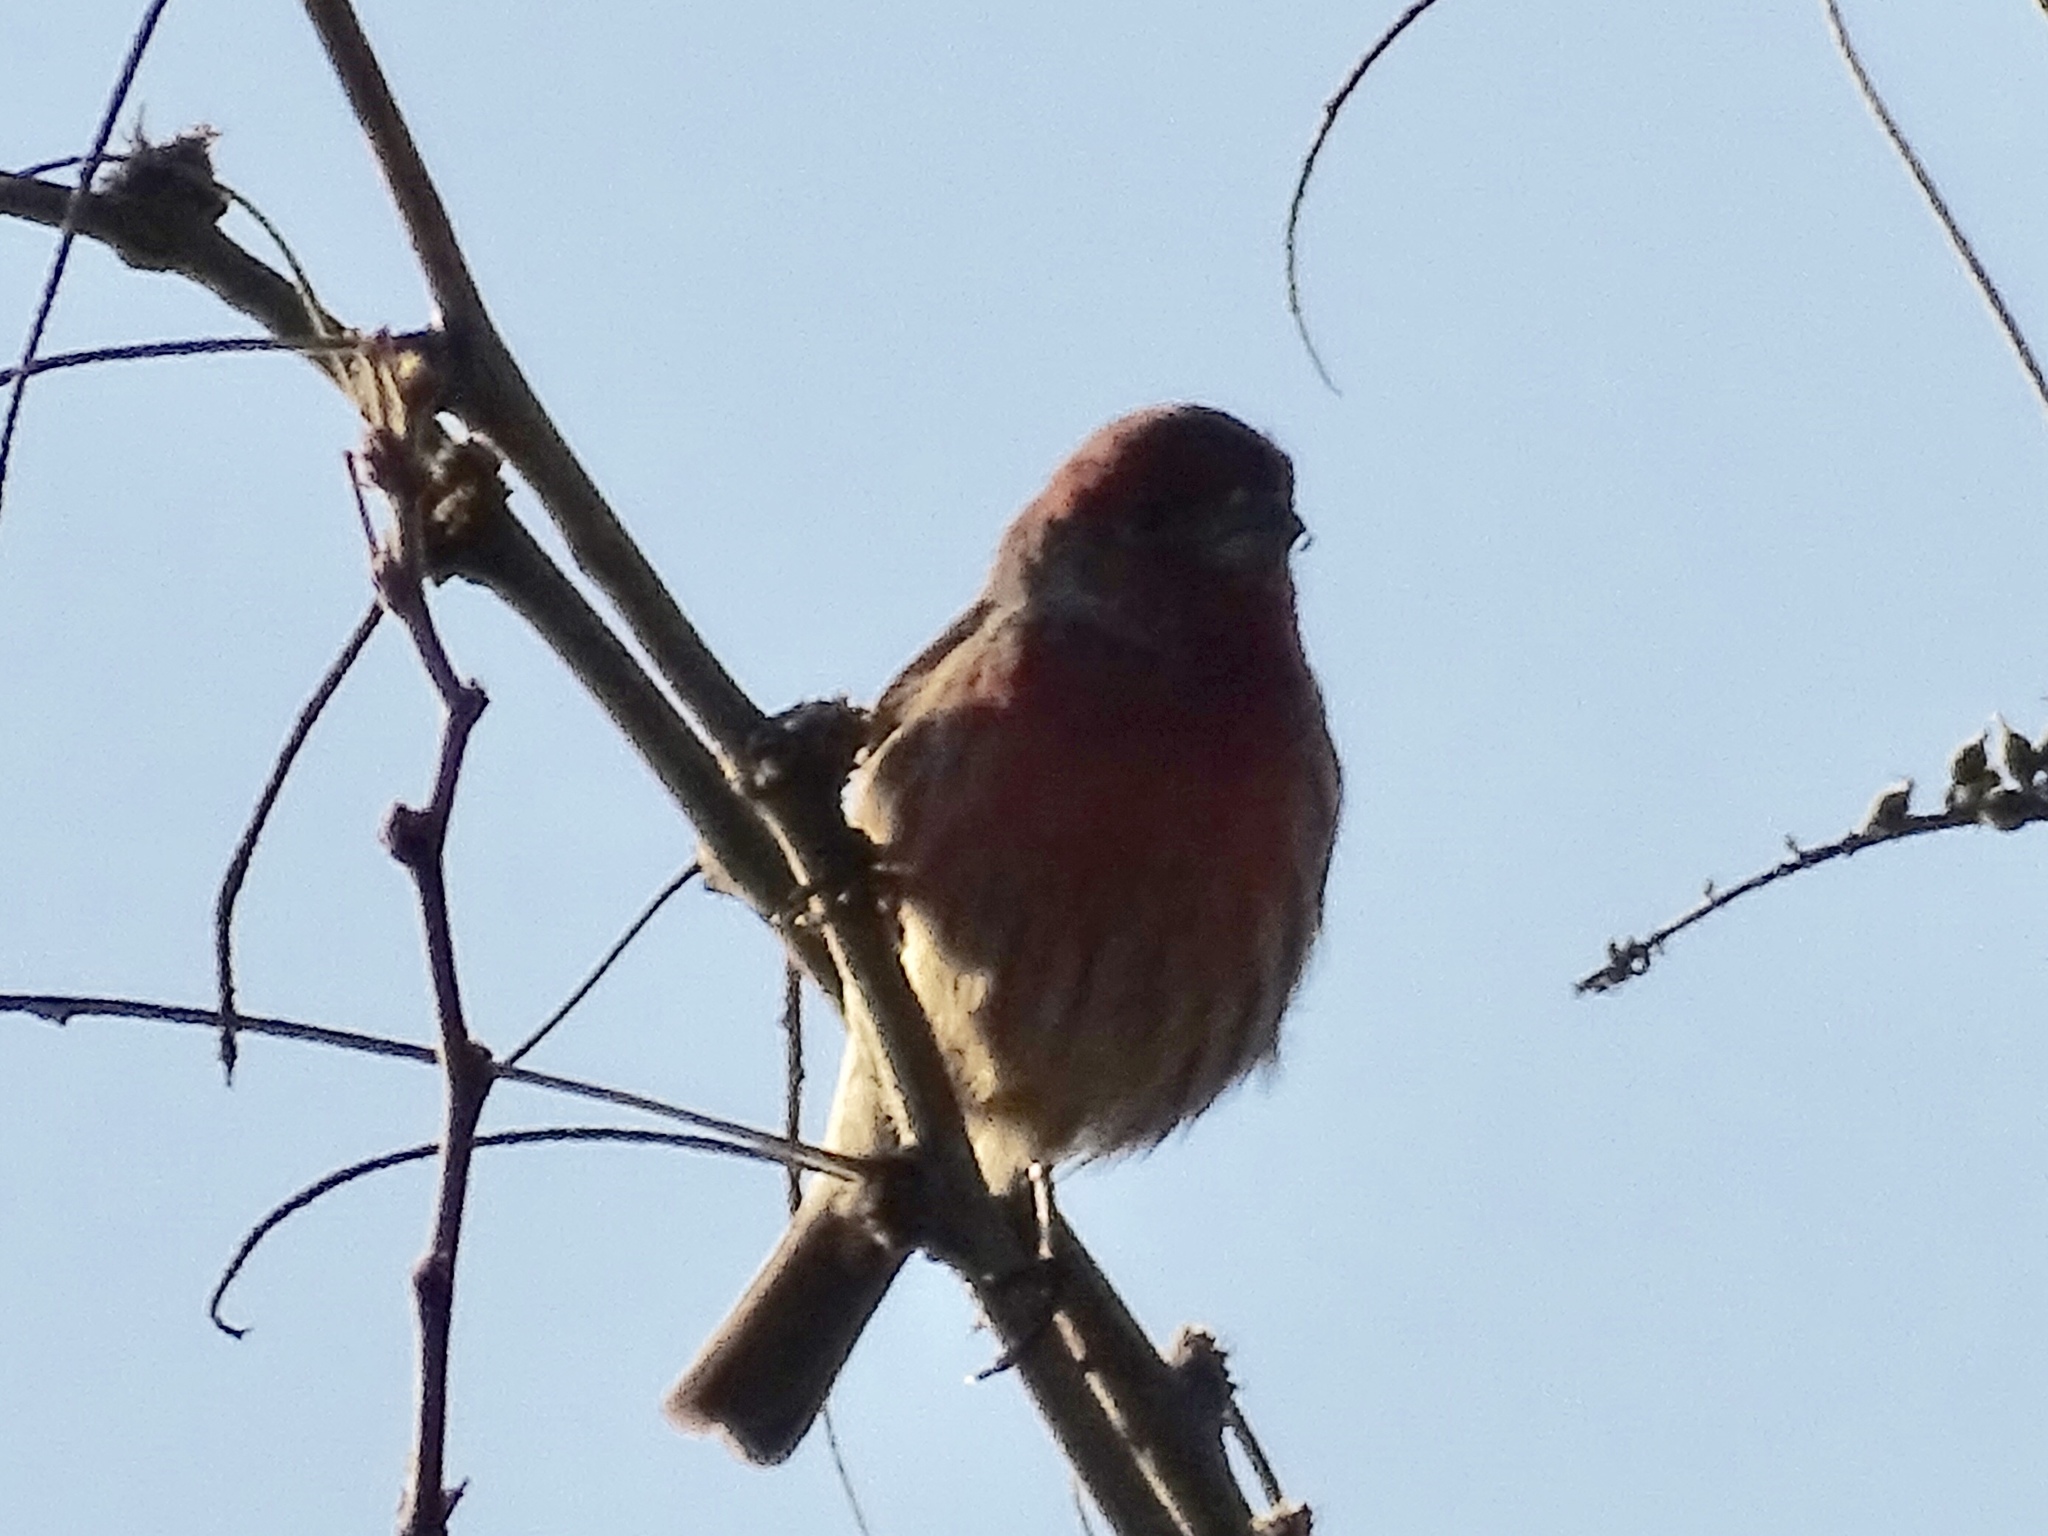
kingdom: Animalia
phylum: Chordata
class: Aves
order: Passeriformes
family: Fringillidae
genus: Haemorhous
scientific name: Haemorhous mexicanus
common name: House finch
